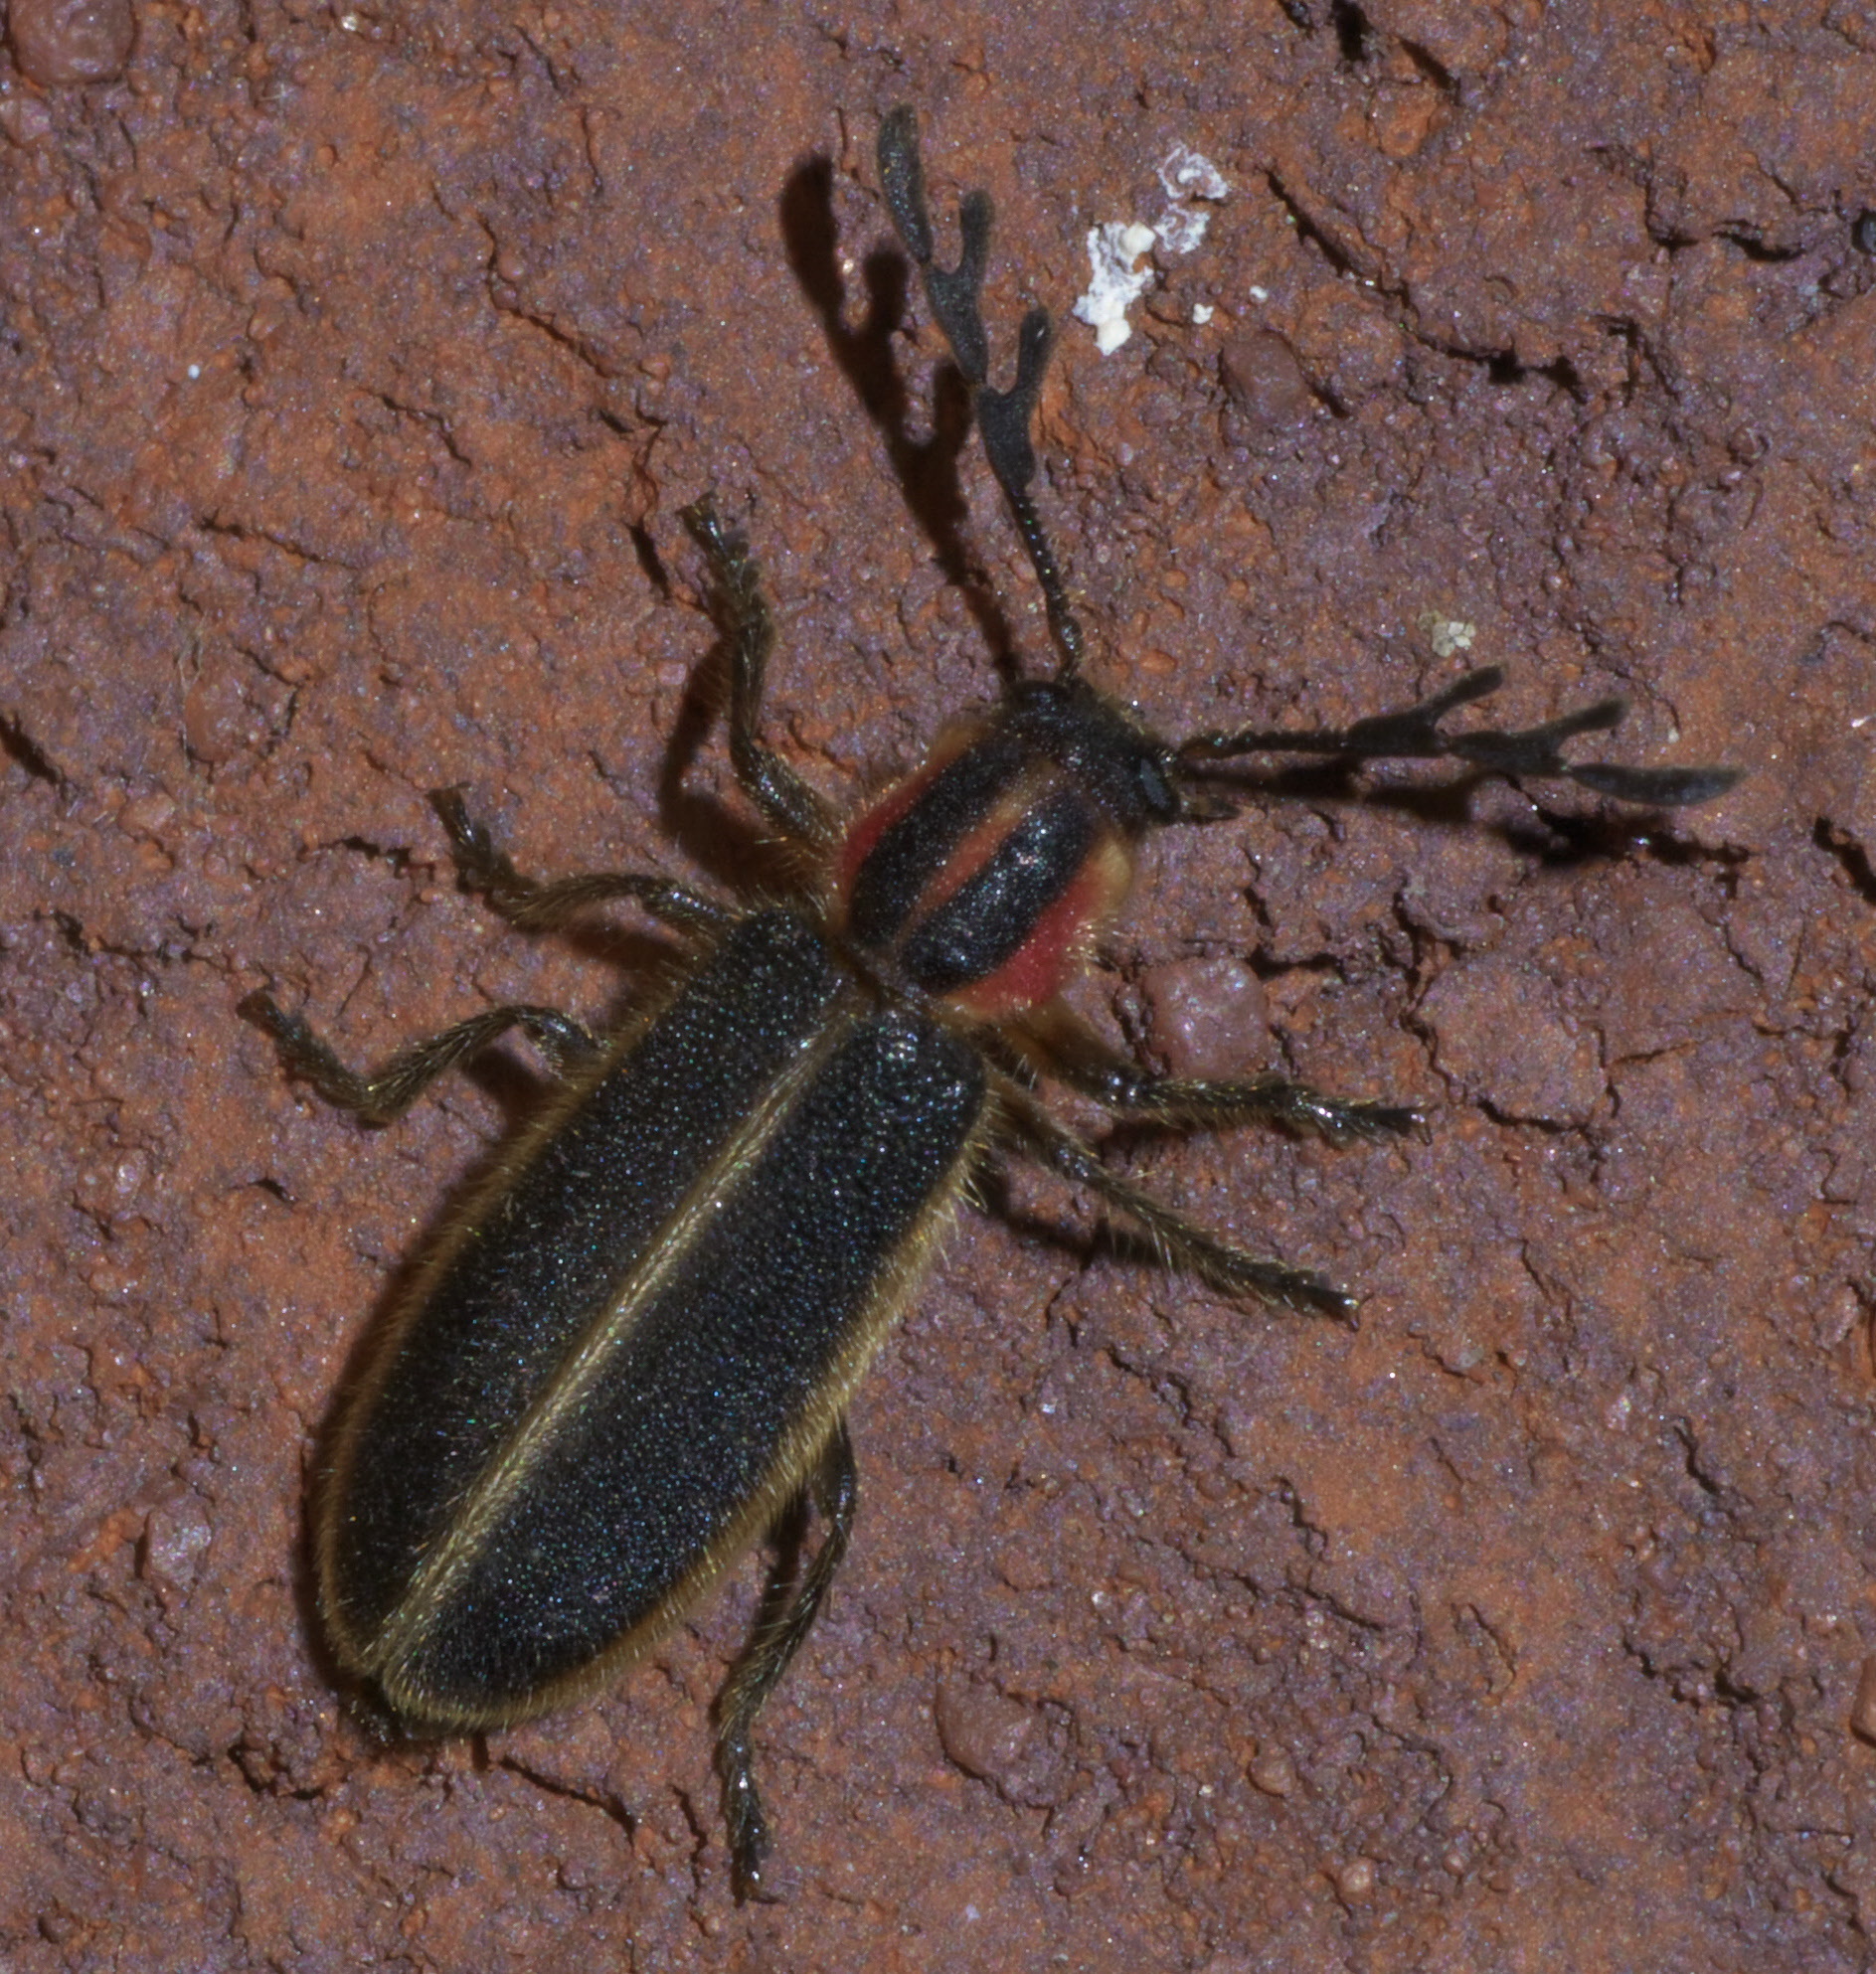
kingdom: Animalia
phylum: Arthropoda
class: Insecta
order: Coleoptera
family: Cleridae
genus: Chariessa
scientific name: Chariessa pilosa
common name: Pilose checkered beetle
